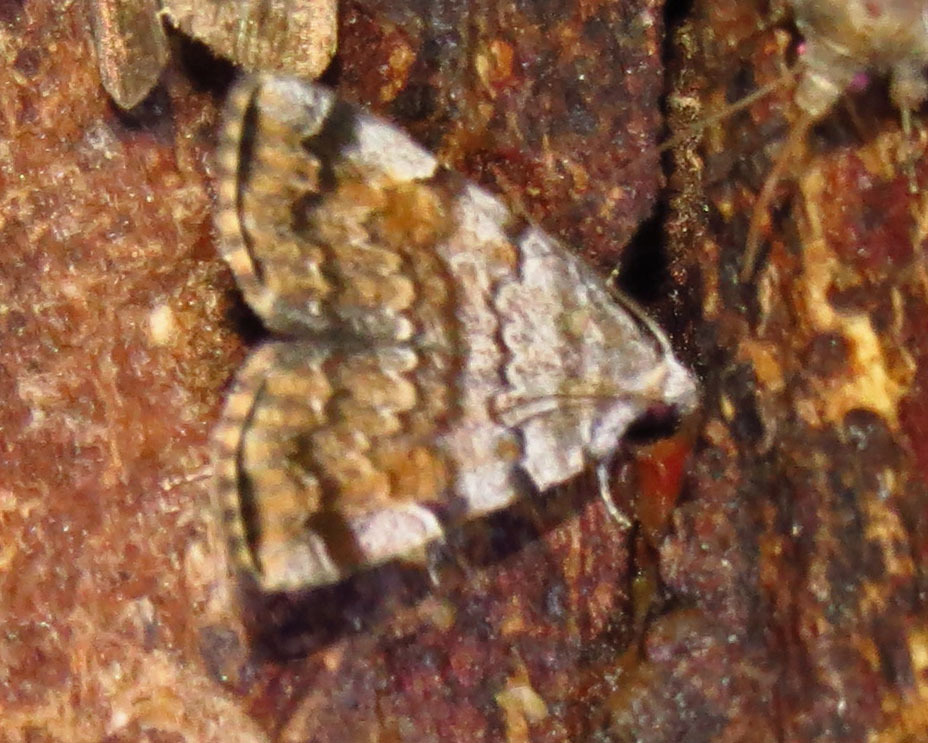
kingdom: Animalia
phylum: Arthropoda
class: Insecta
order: Lepidoptera
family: Erebidae
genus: Idia
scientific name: Idia americalis
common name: American idia moth
